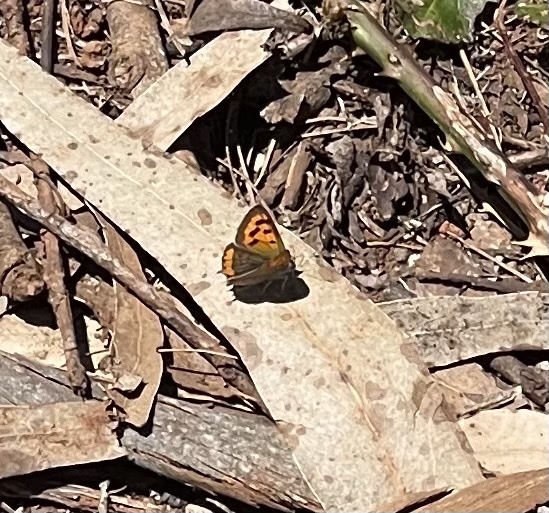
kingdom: Animalia
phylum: Arthropoda
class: Insecta
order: Lepidoptera
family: Lycaenidae
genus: Lycaena
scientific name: Lycaena phlaeas
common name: Small copper
